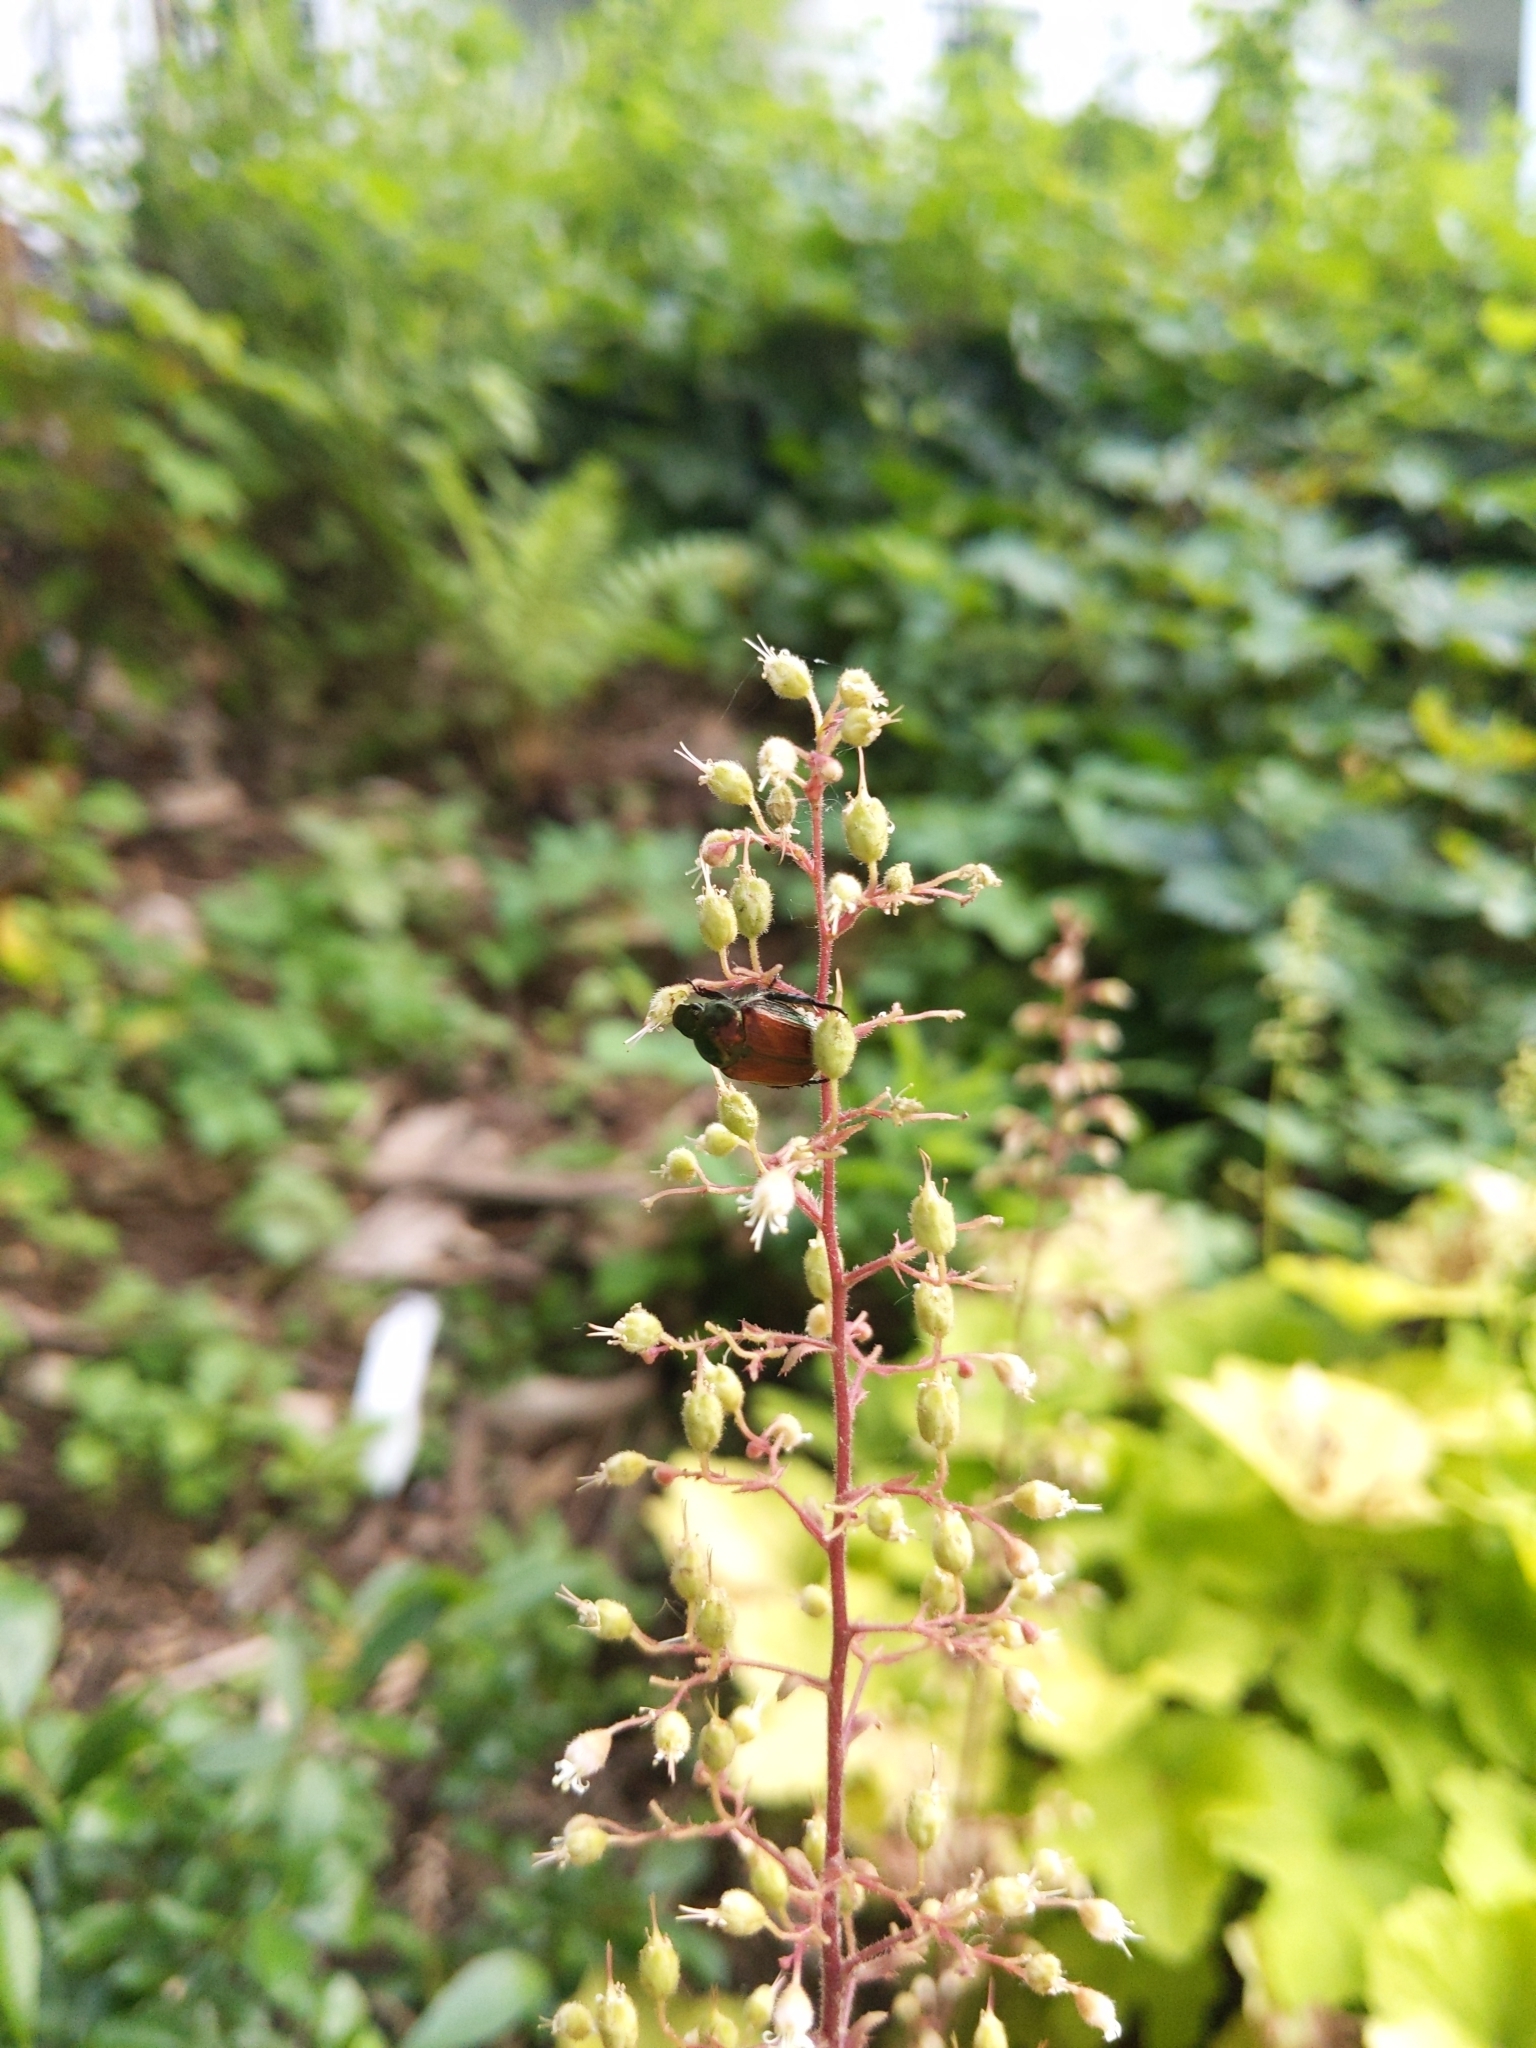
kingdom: Animalia
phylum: Arthropoda
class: Insecta
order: Coleoptera
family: Scarabaeidae
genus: Popillia
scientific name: Popillia japonica
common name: Japanese beetle
